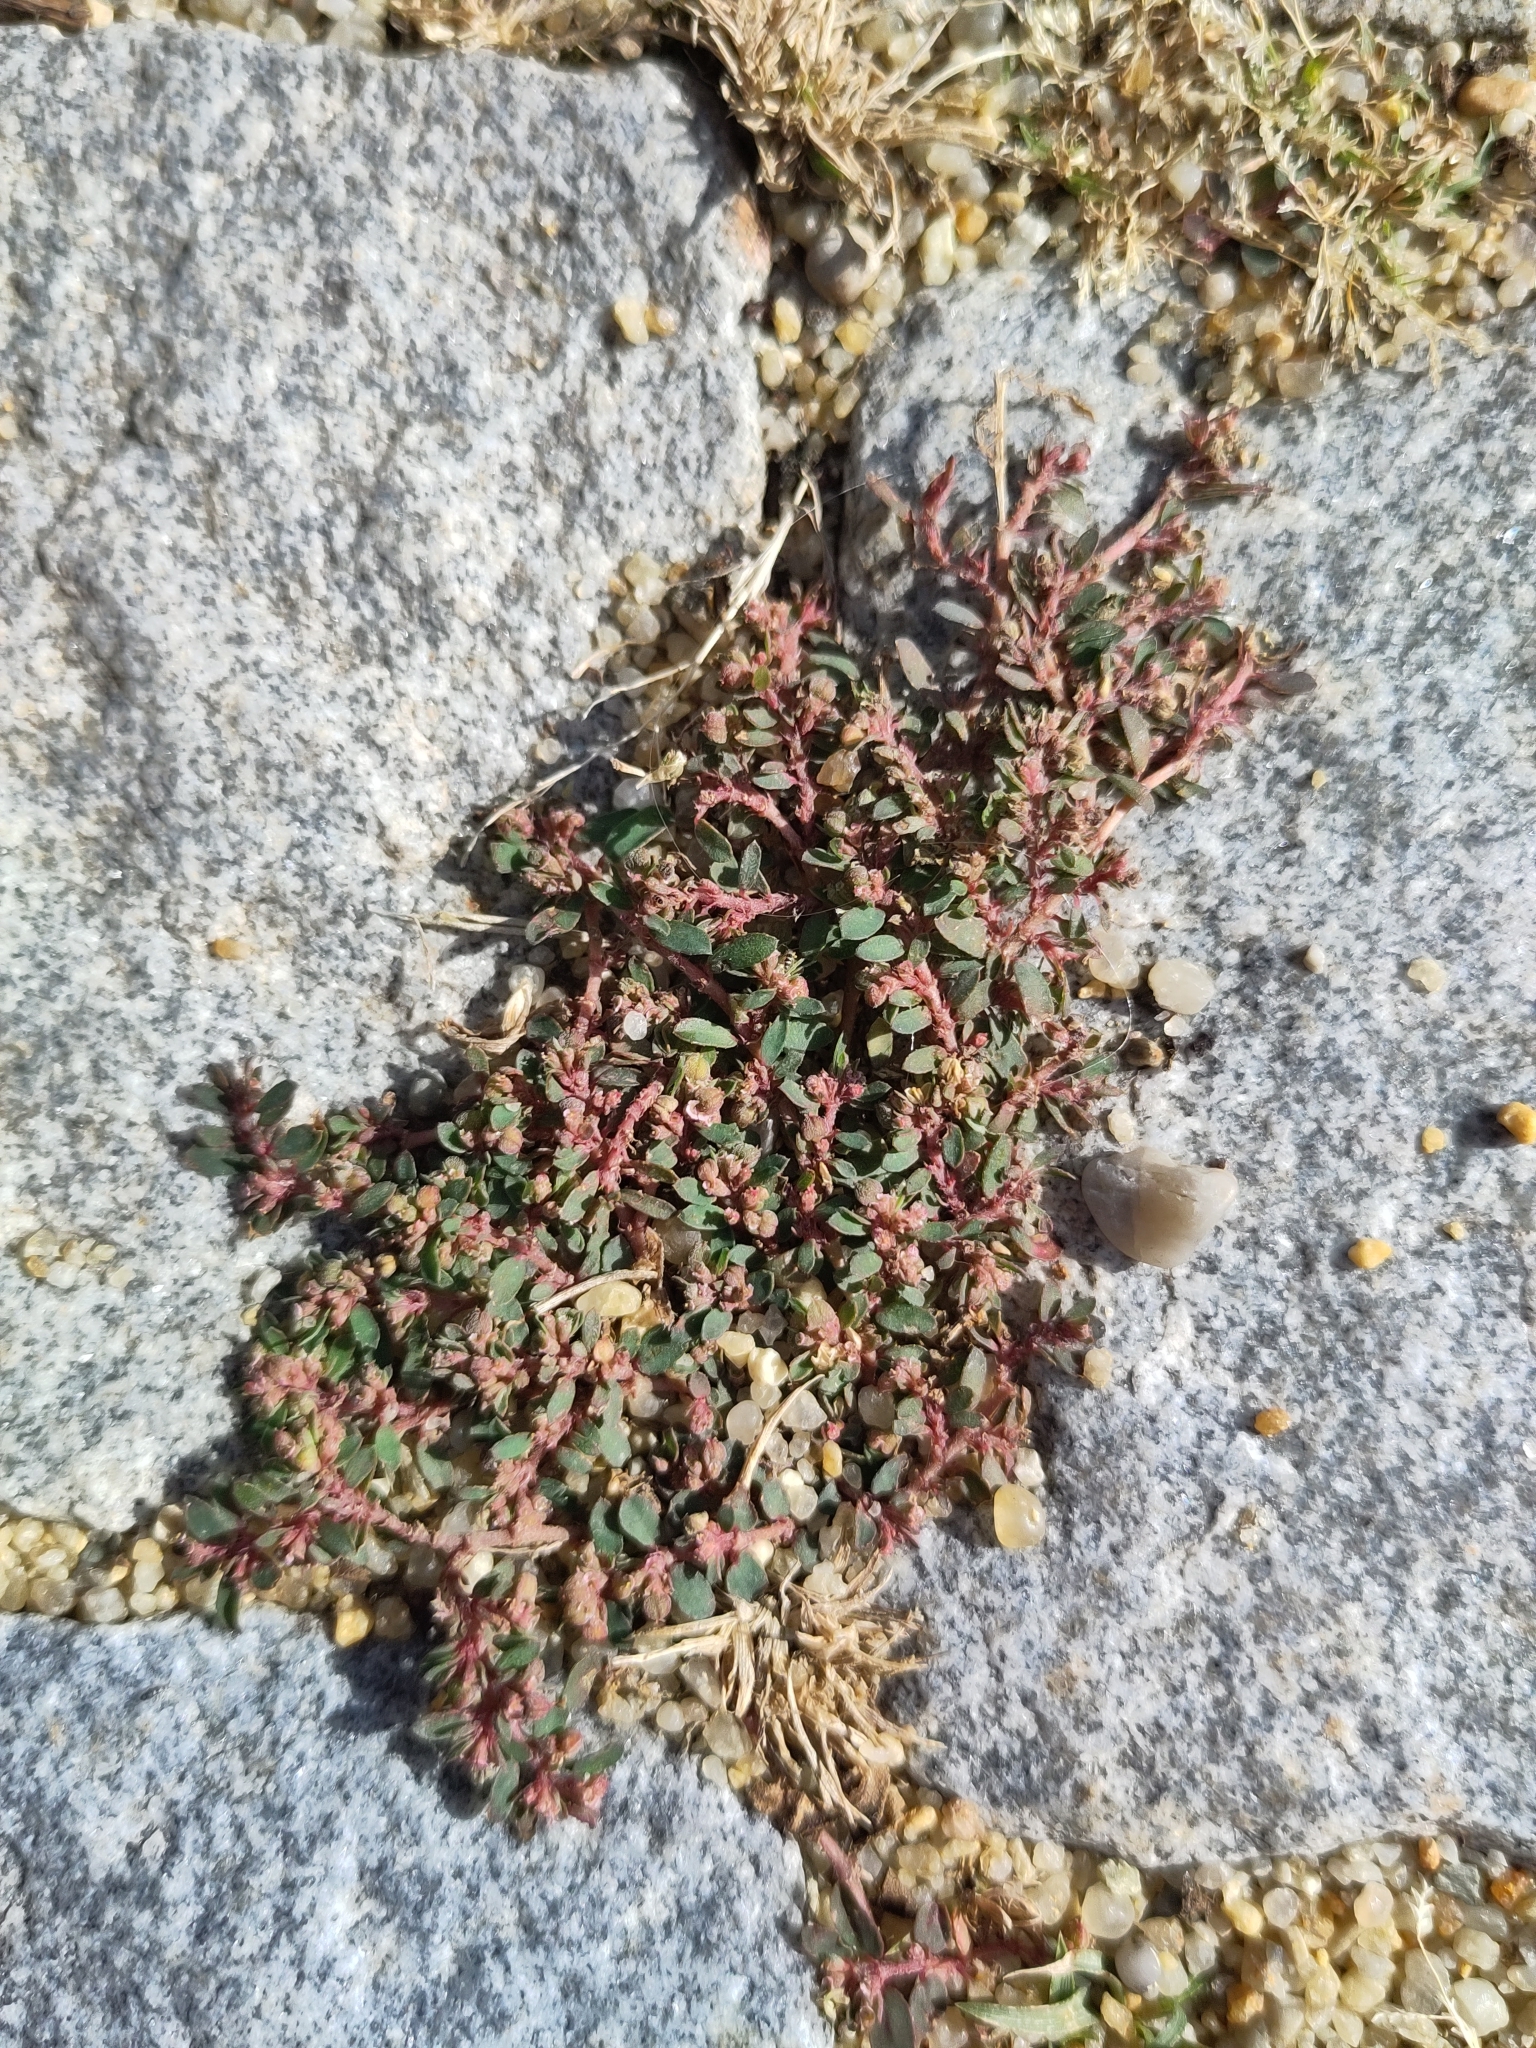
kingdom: Plantae
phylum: Tracheophyta
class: Magnoliopsida
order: Malpighiales
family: Euphorbiaceae
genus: Euphorbia
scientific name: Euphorbia maculata
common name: Spotted spurge
